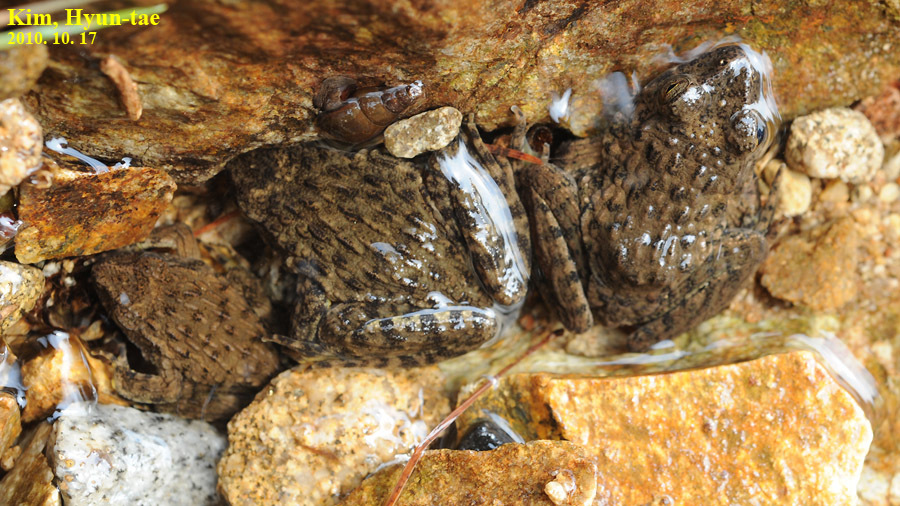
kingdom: Animalia
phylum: Chordata
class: Amphibia
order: Anura
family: Ranidae
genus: Glandirana
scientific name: Glandirana emeljanovi
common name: Northeast china rough-skinned frog
